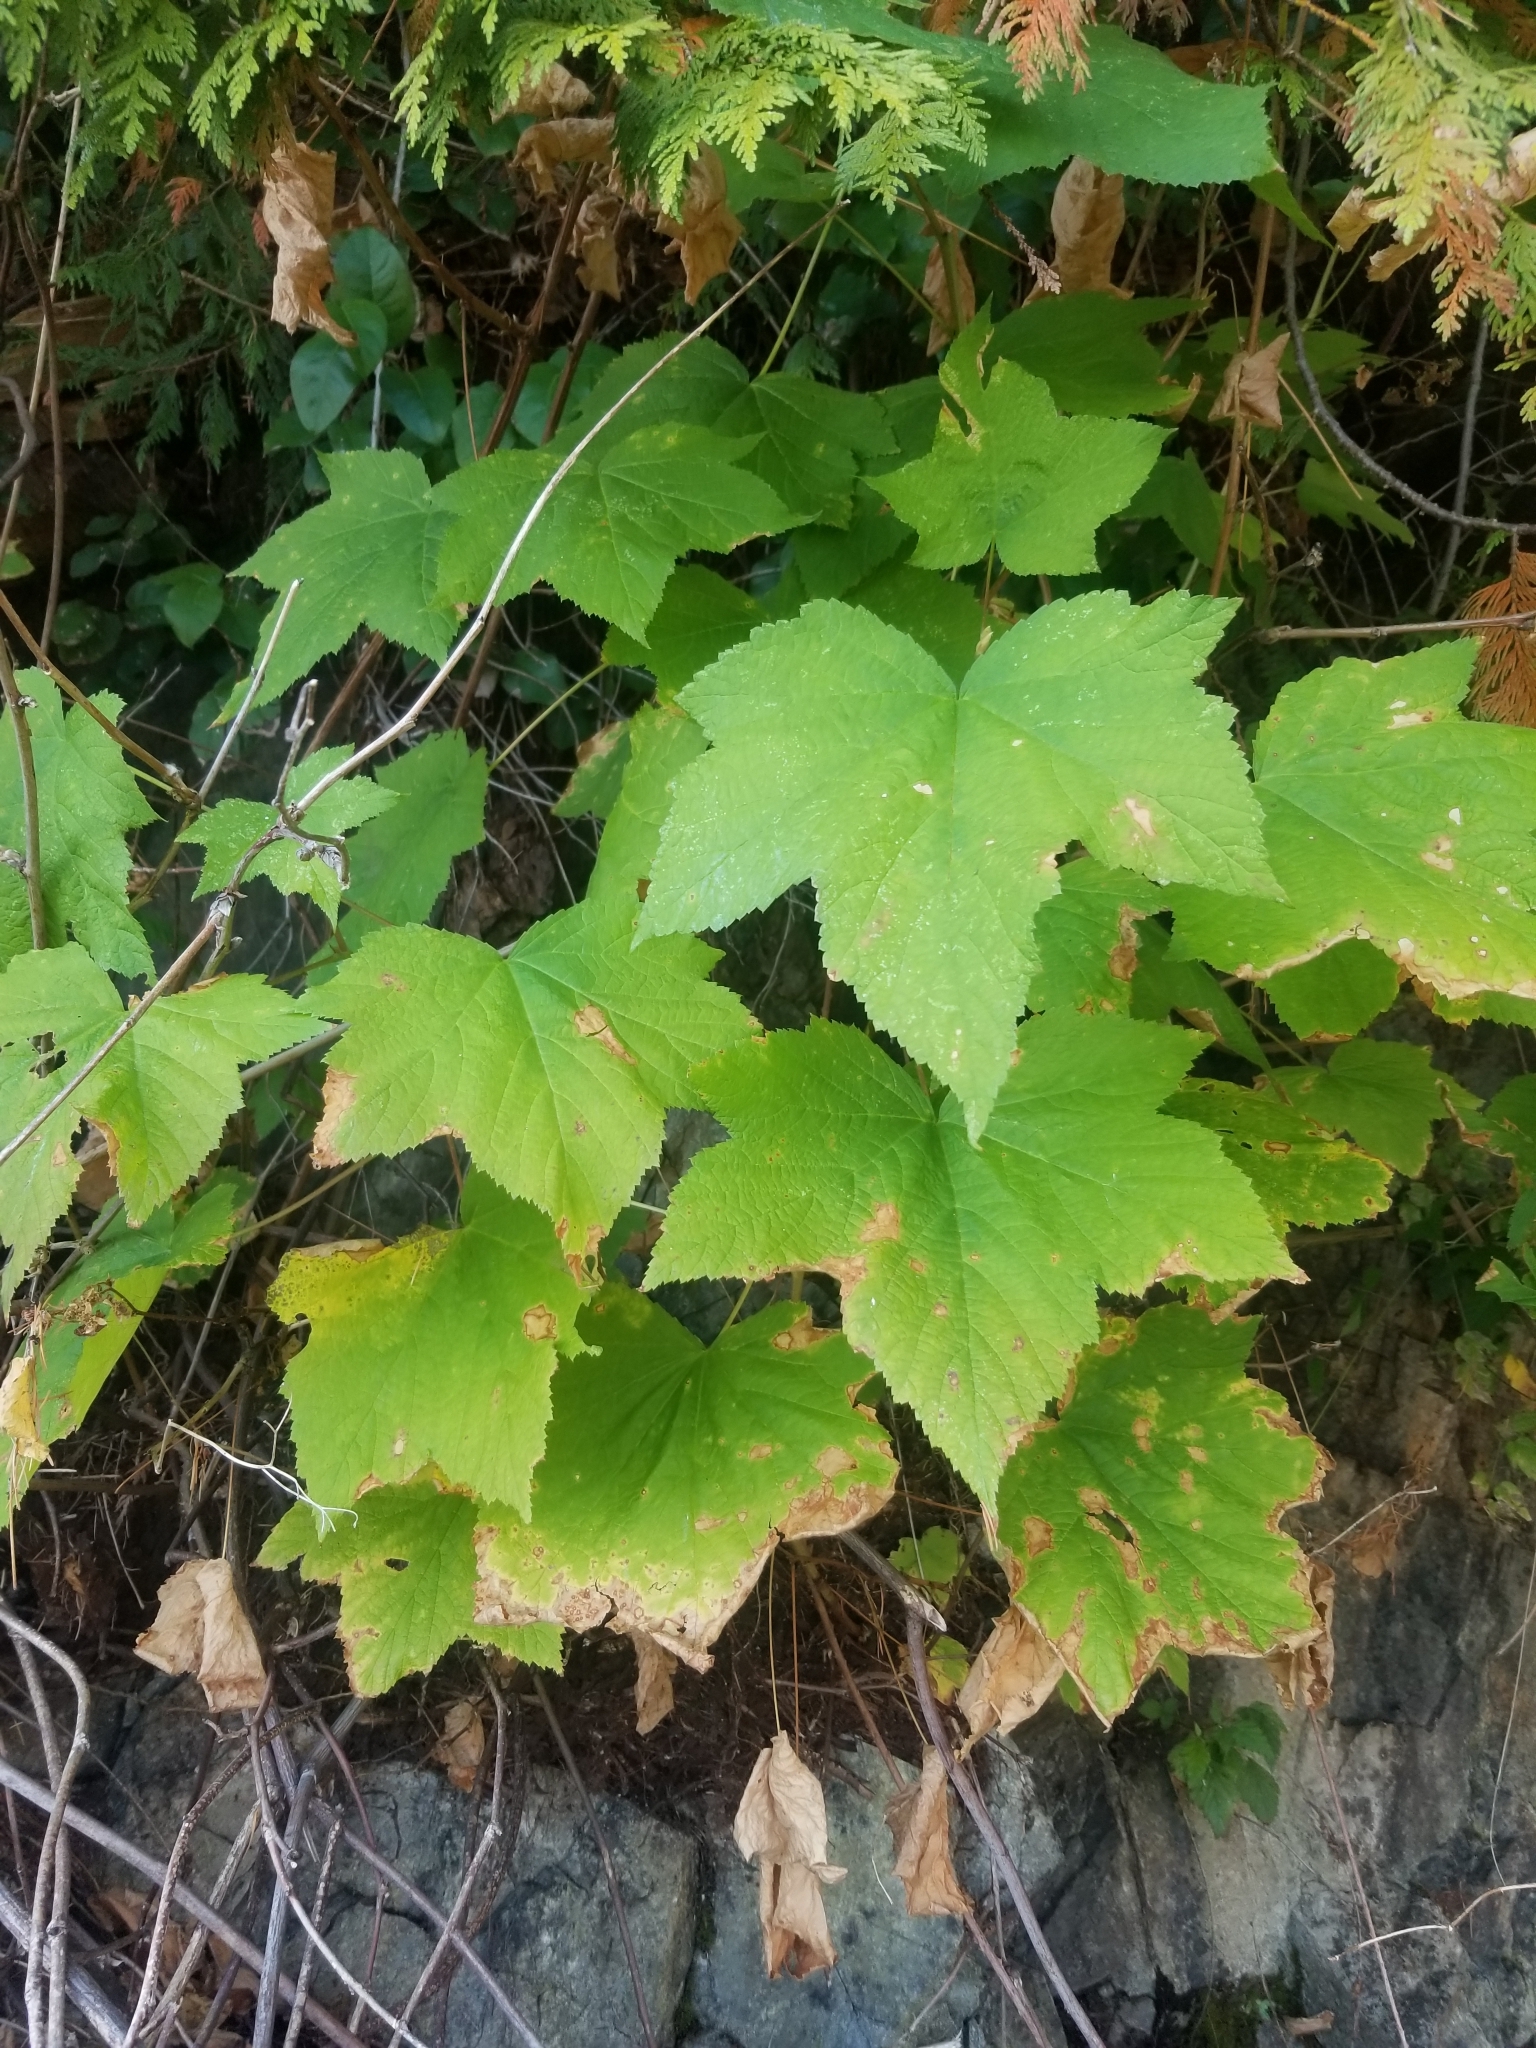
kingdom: Plantae
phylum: Tracheophyta
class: Magnoliopsida
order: Rosales
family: Rosaceae
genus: Rubus
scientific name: Rubus parviflorus
